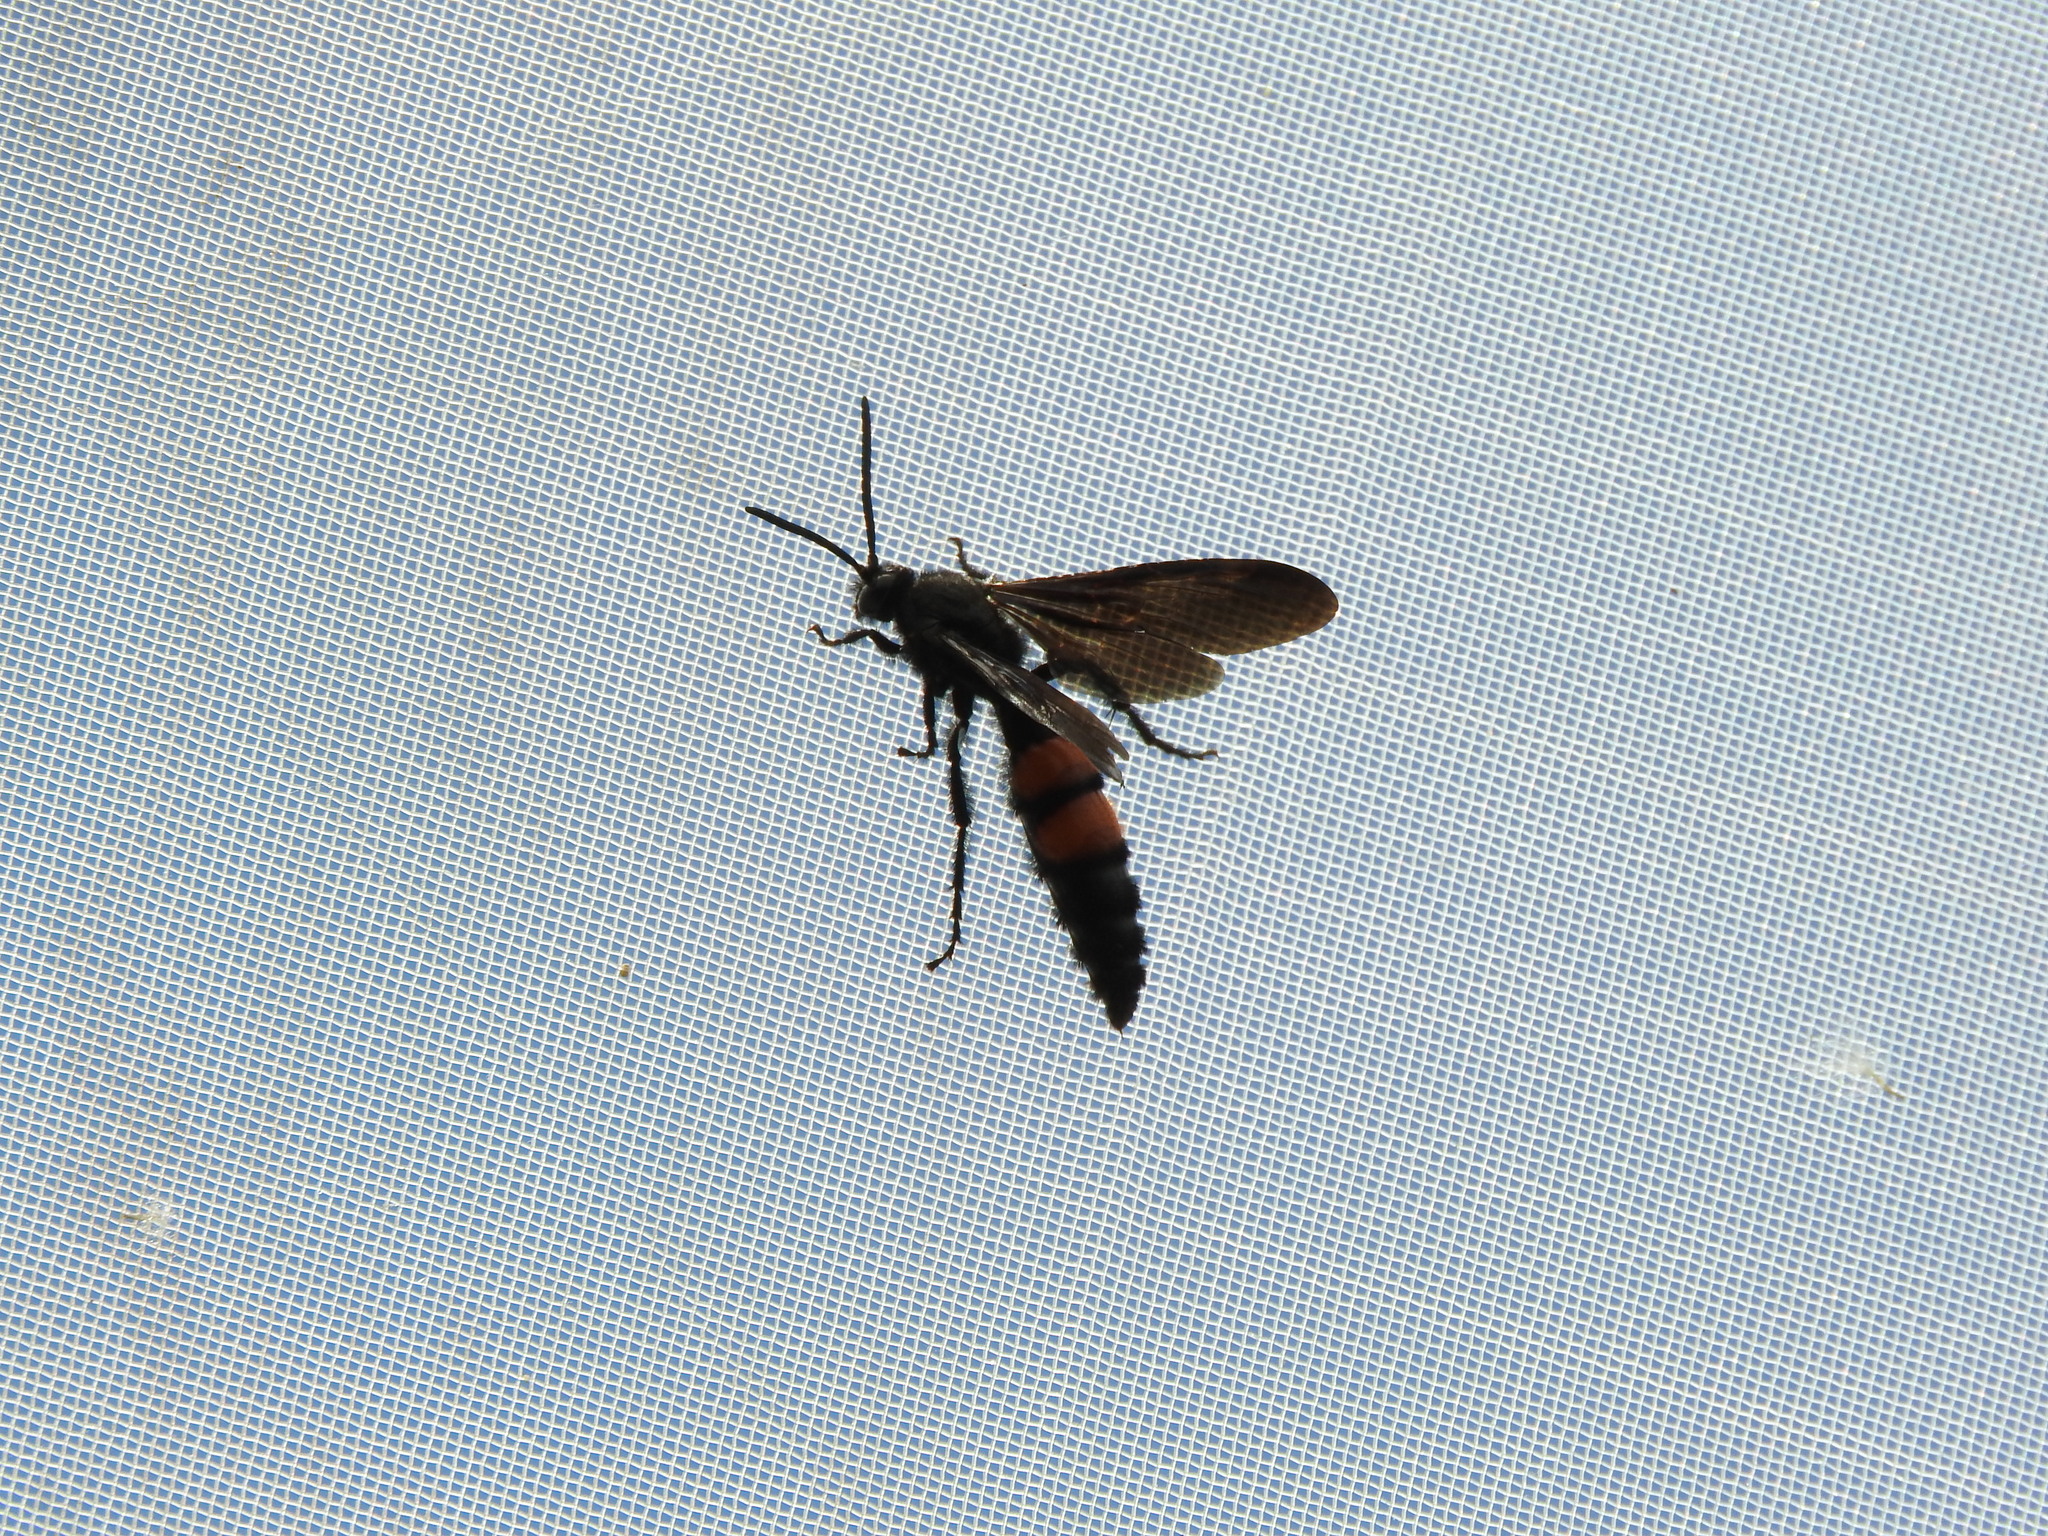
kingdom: Animalia
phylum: Arthropoda
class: Insecta
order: Hymenoptera
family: Scoliidae
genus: Pygodasis
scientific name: Pygodasis ephippium
